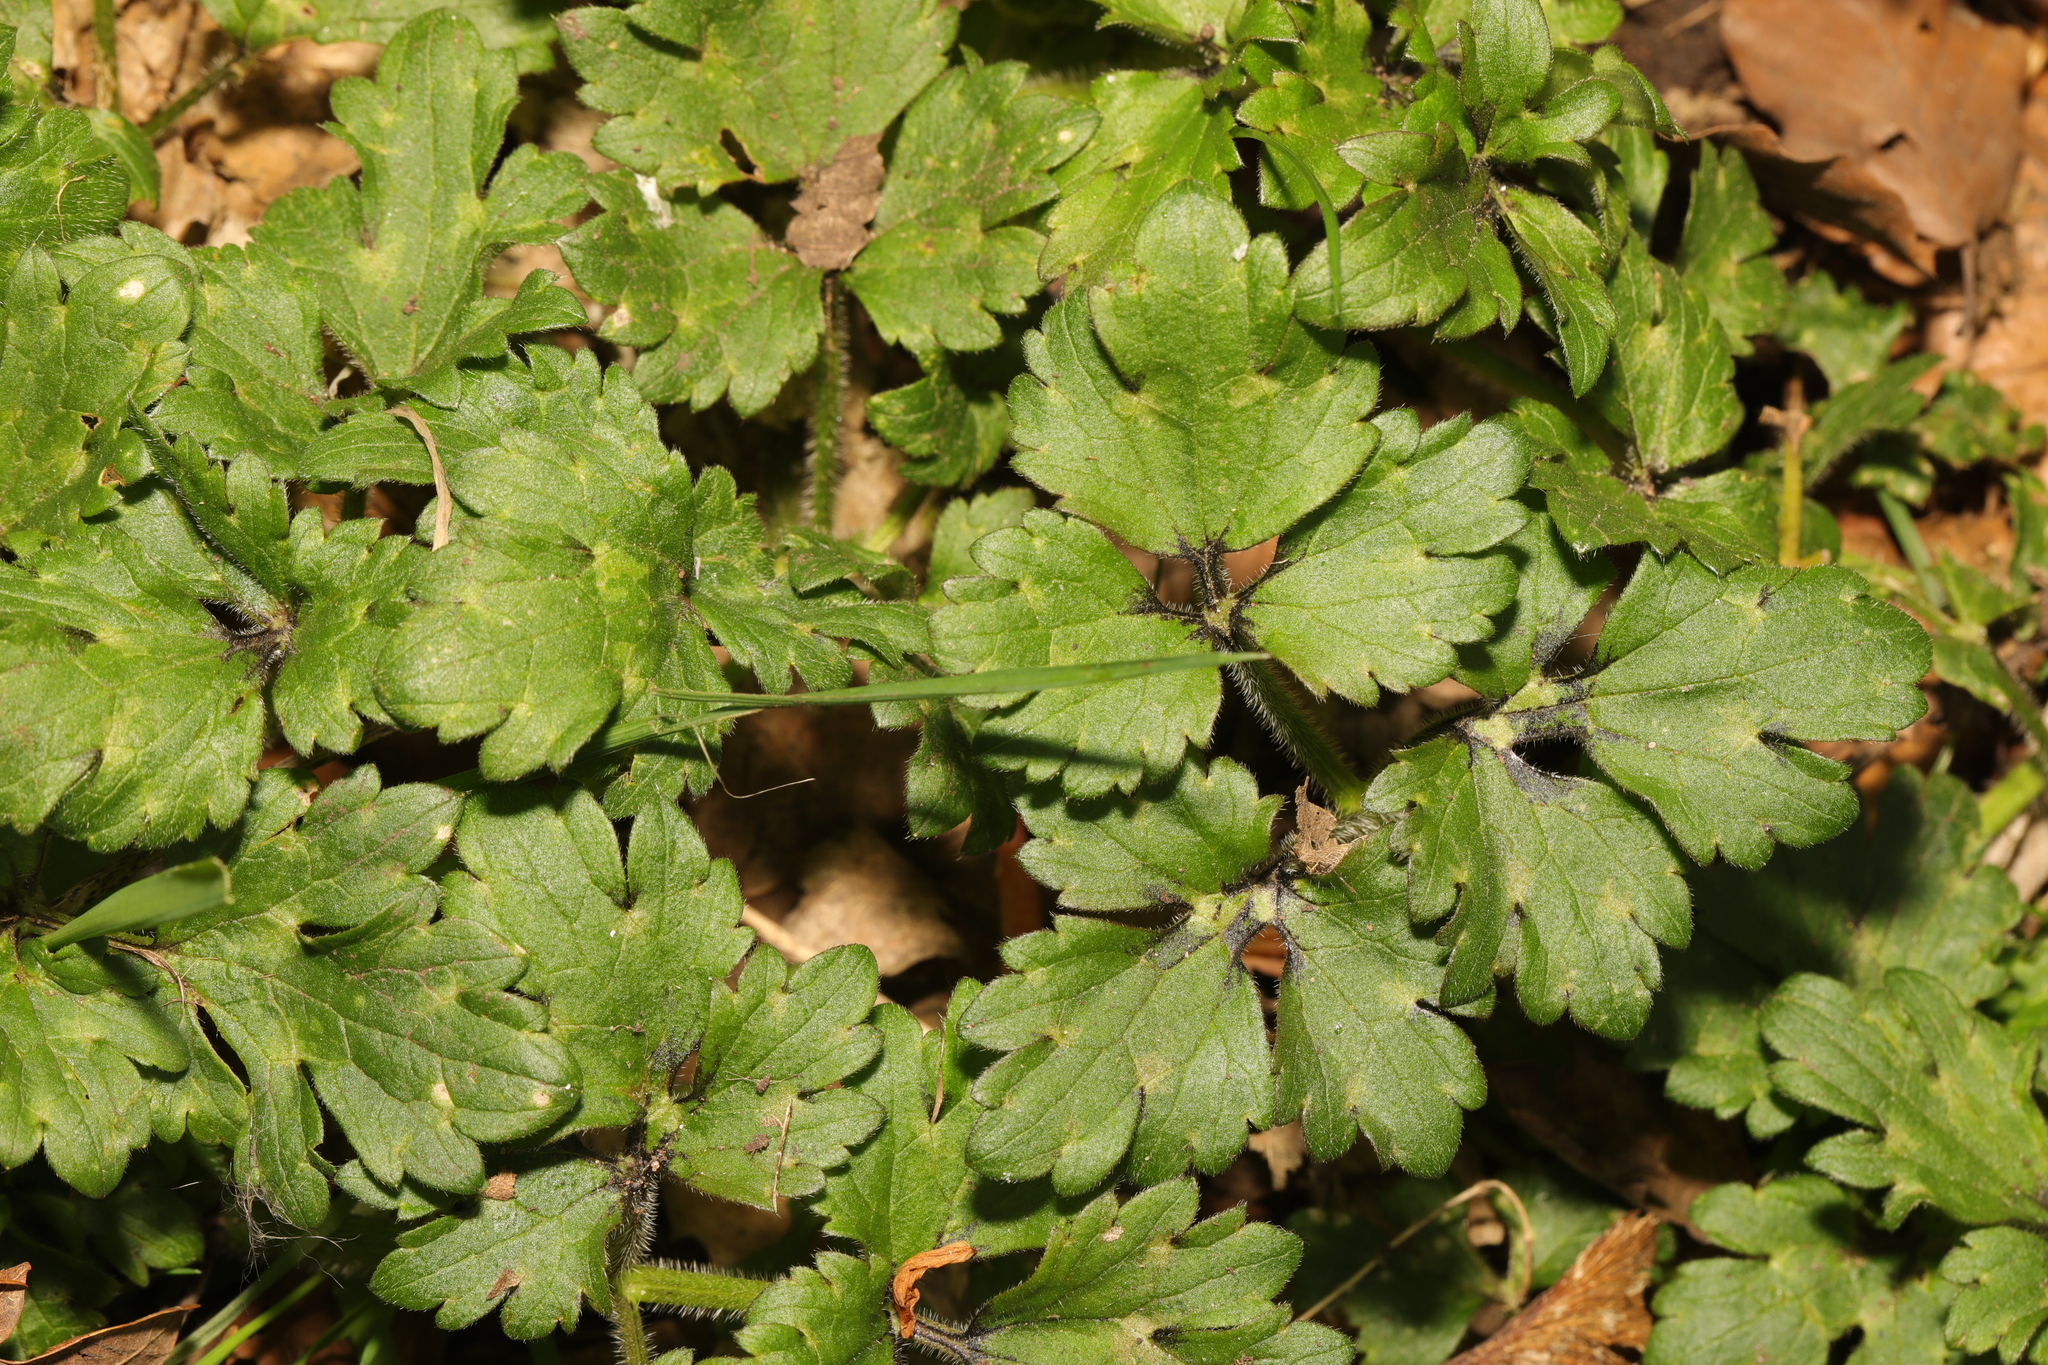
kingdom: Plantae
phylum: Tracheophyta
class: Magnoliopsida
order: Ranunculales
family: Ranunculaceae
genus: Ranunculus
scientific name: Ranunculus repens
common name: Creeping buttercup
